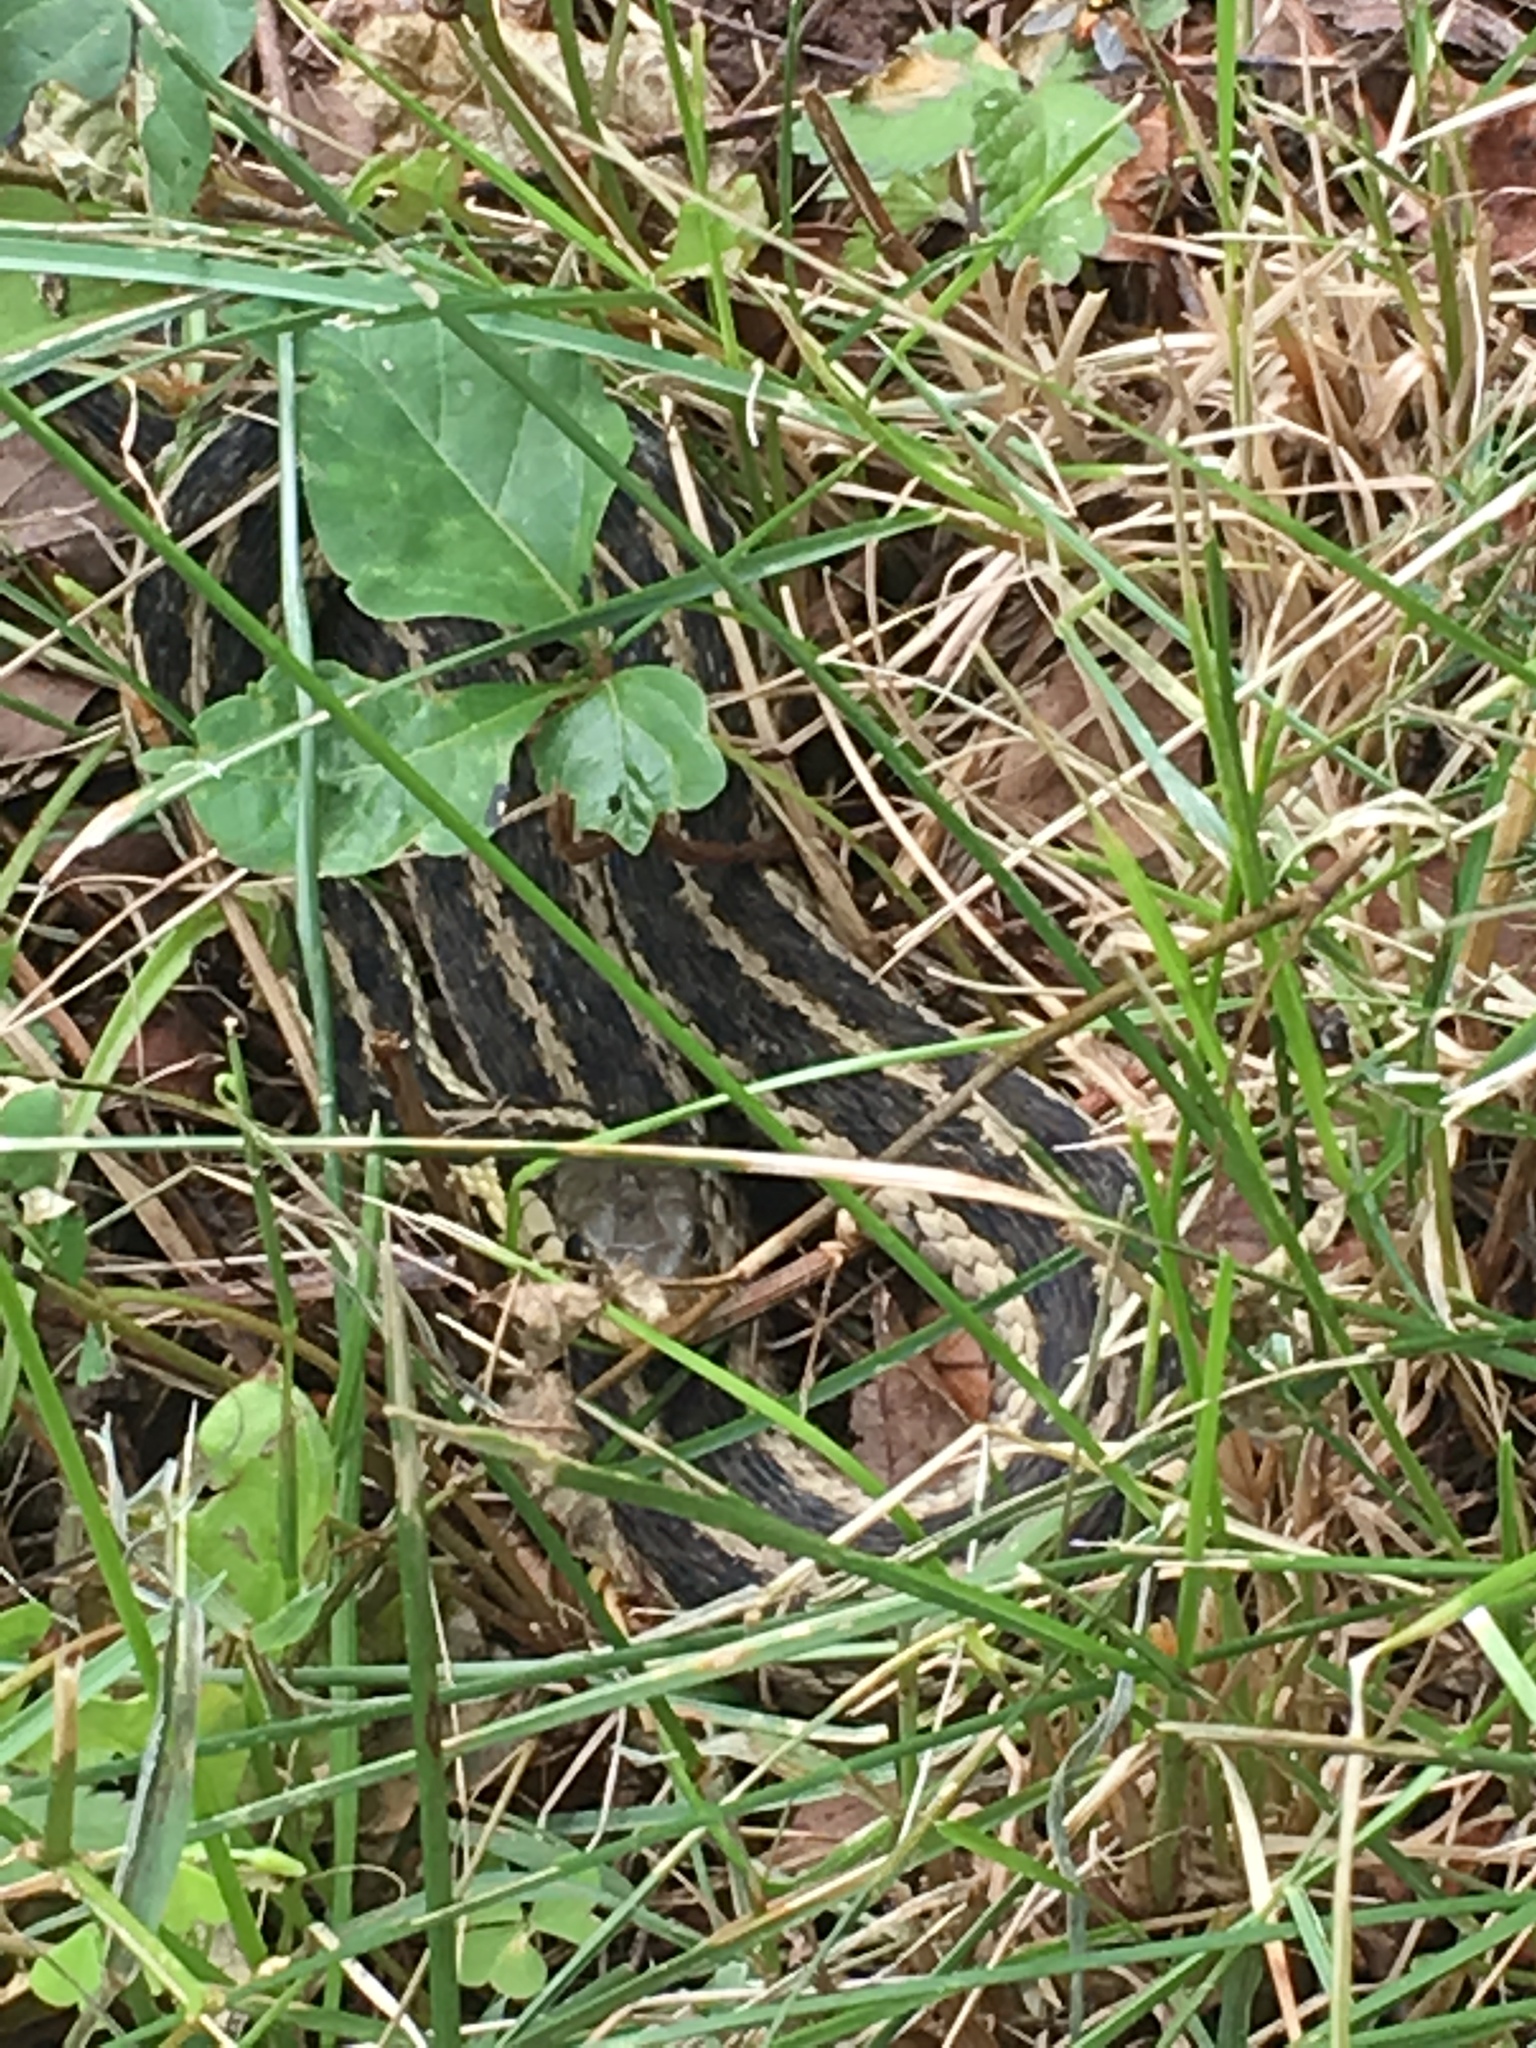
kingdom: Animalia
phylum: Chordata
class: Squamata
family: Colubridae
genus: Thamnophis
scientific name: Thamnophis sirtalis
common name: Common garter snake
